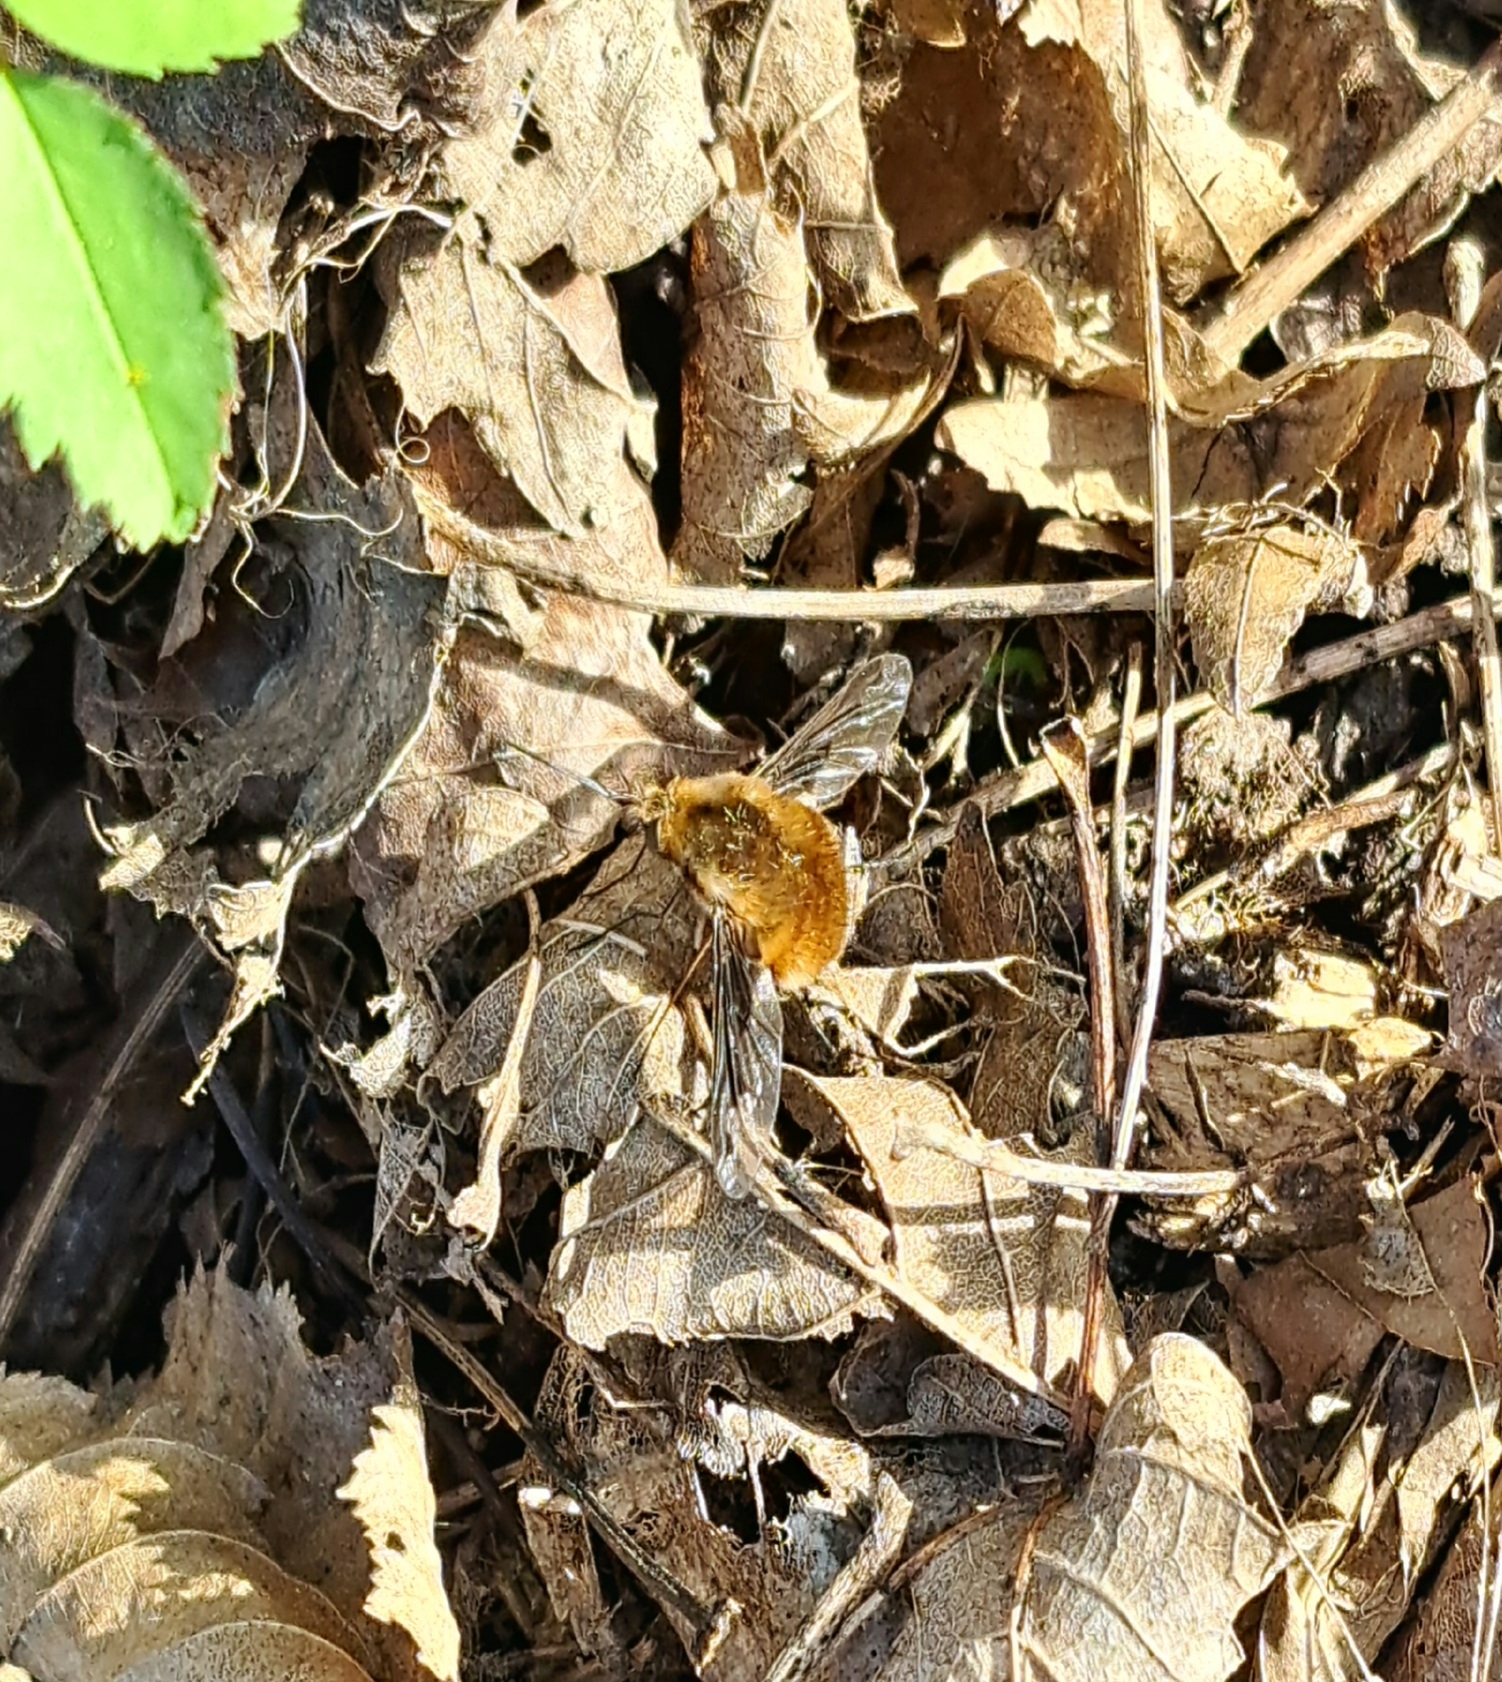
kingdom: Animalia
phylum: Arthropoda
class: Insecta
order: Diptera
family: Bombyliidae
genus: Bombylius
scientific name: Bombylius major
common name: Bee fly
